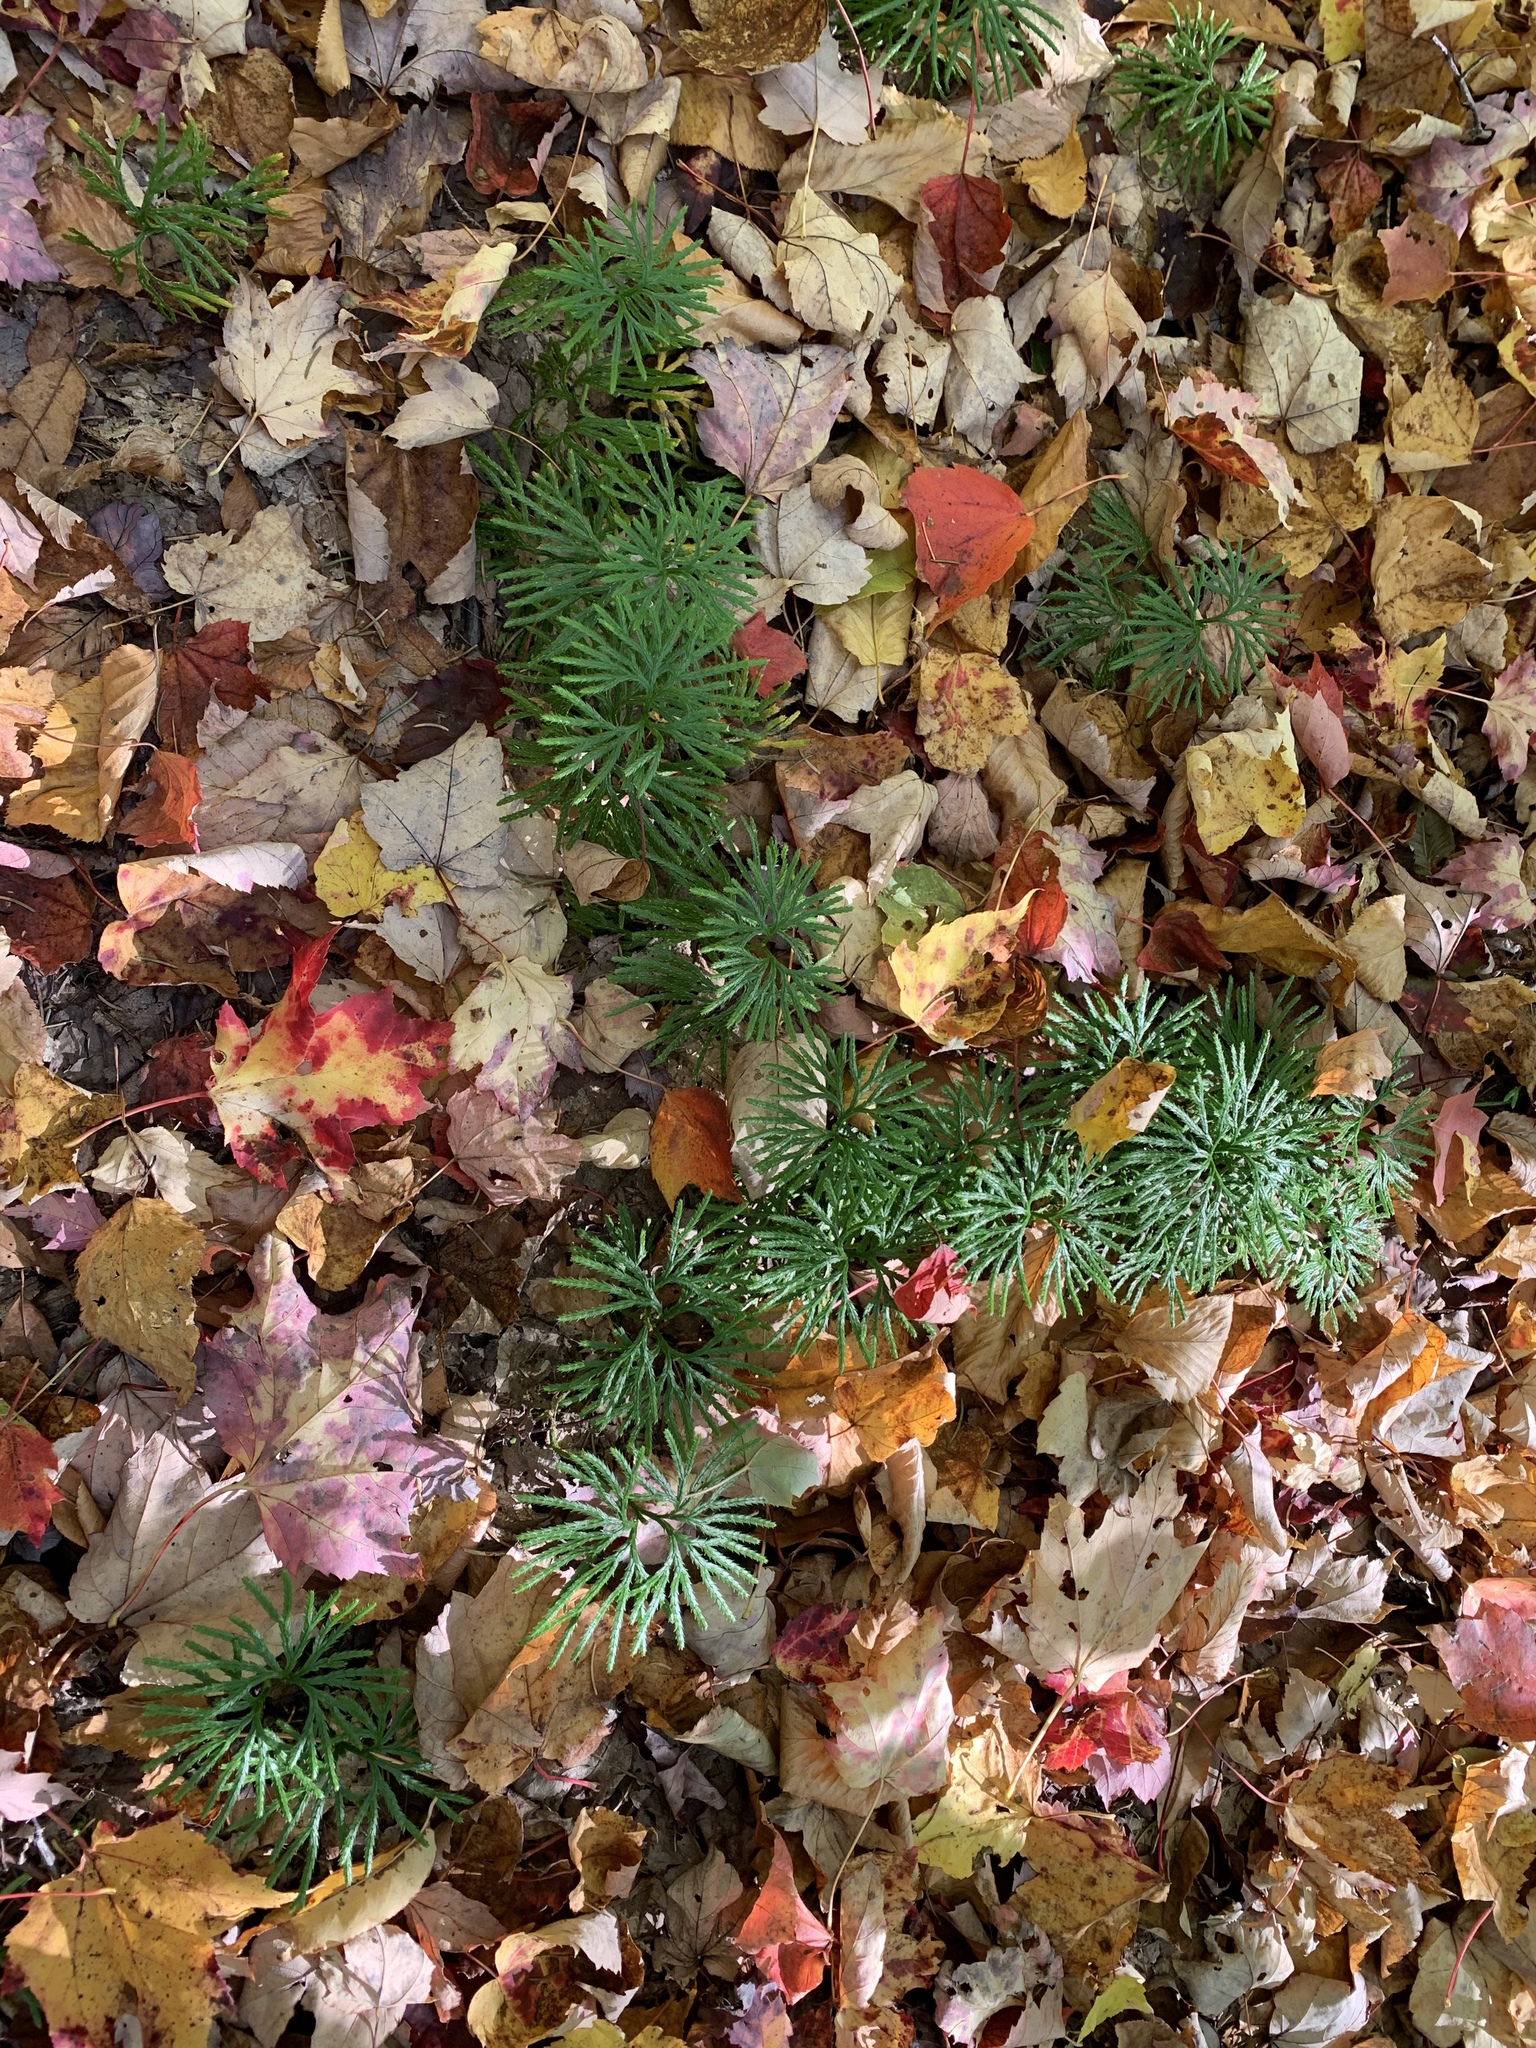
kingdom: Plantae
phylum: Tracheophyta
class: Lycopodiopsida
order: Lycopodiales
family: Lycopodiaceae
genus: Diphasiastrum
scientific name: Diphasiastrum digitatum
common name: Southern running-pine
